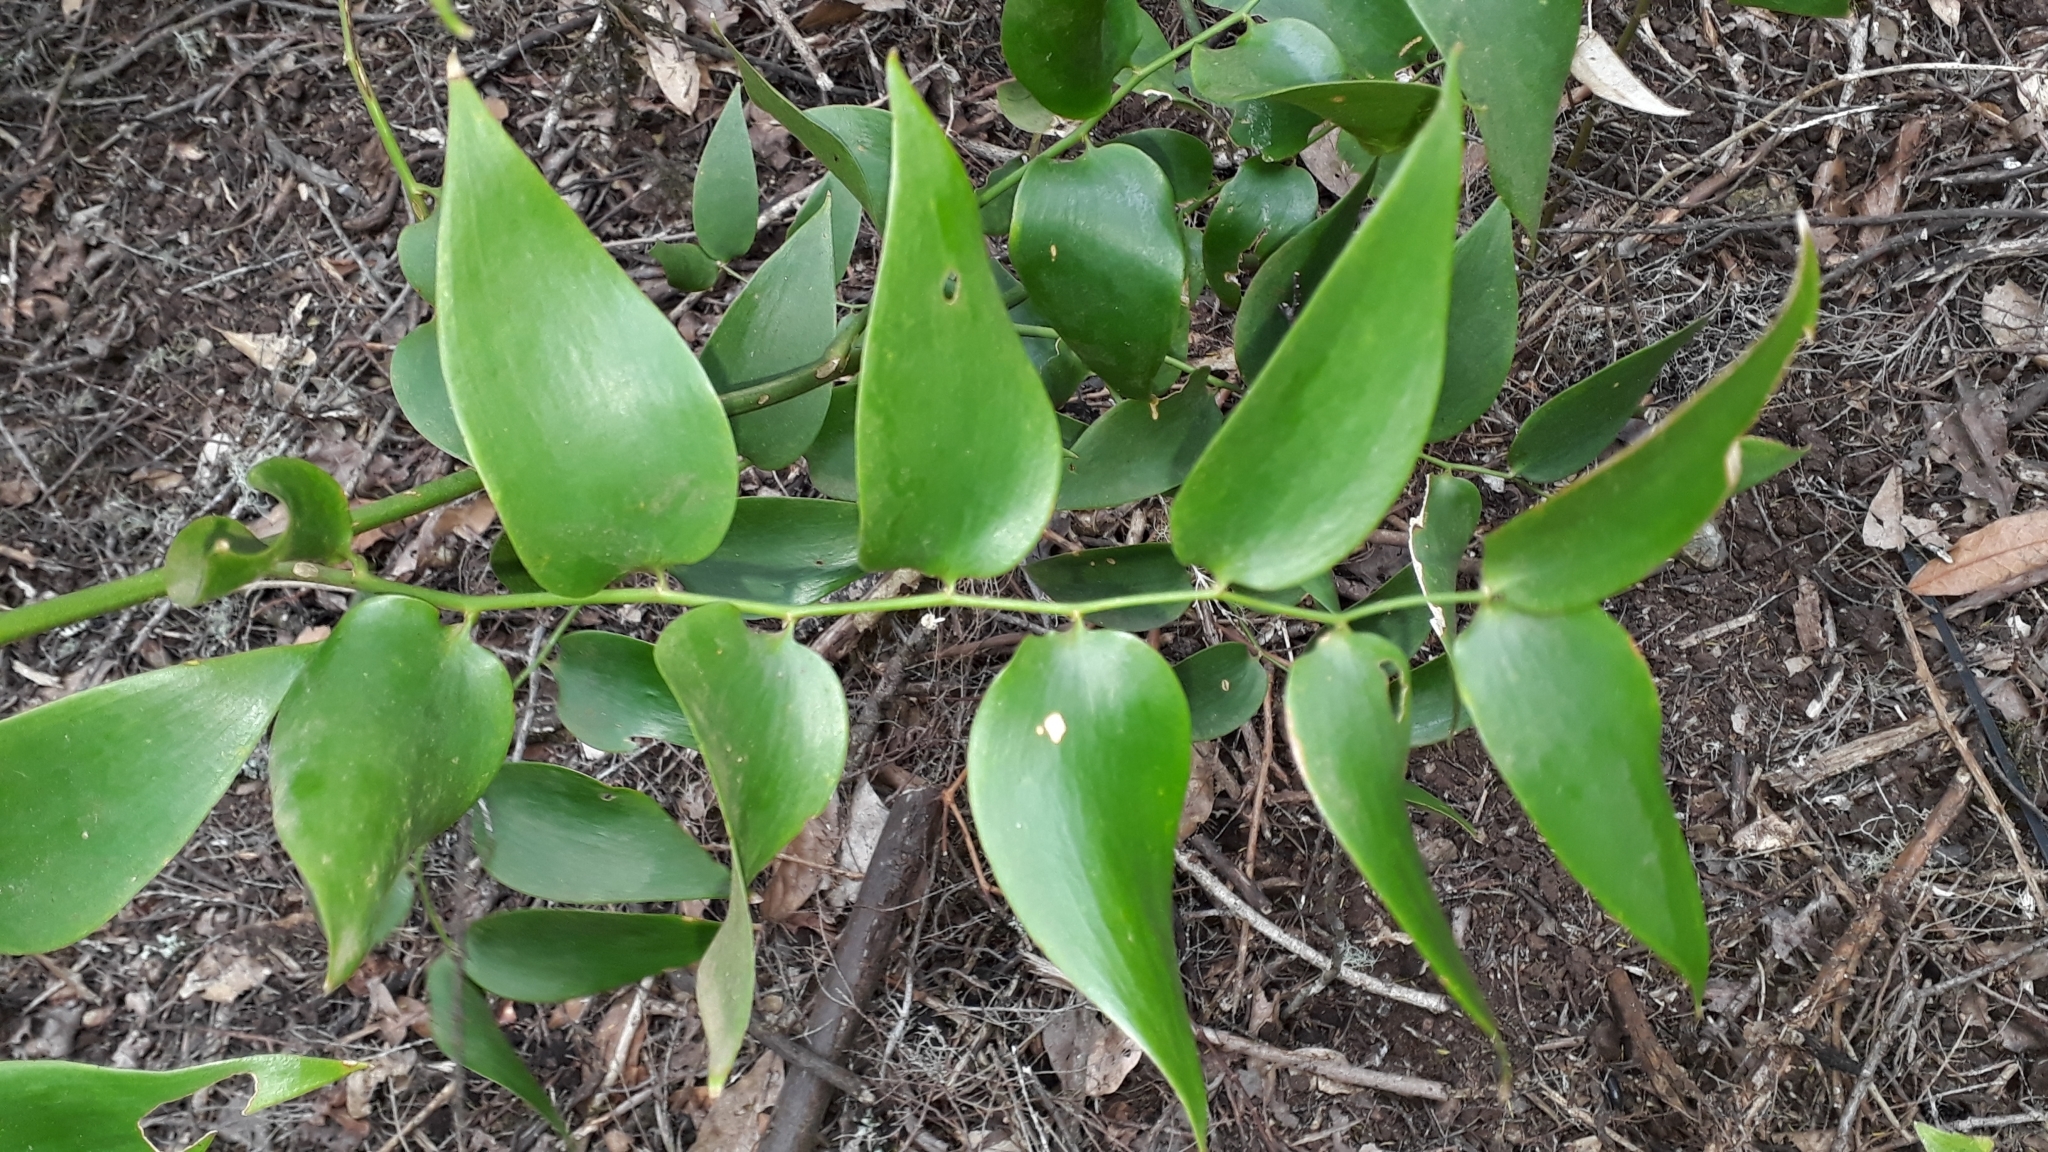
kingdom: Plantae
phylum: Tracheophyta
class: Liliopsida
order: Asparagales
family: Asparagaceae
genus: Semele
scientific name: Semele androgyna
